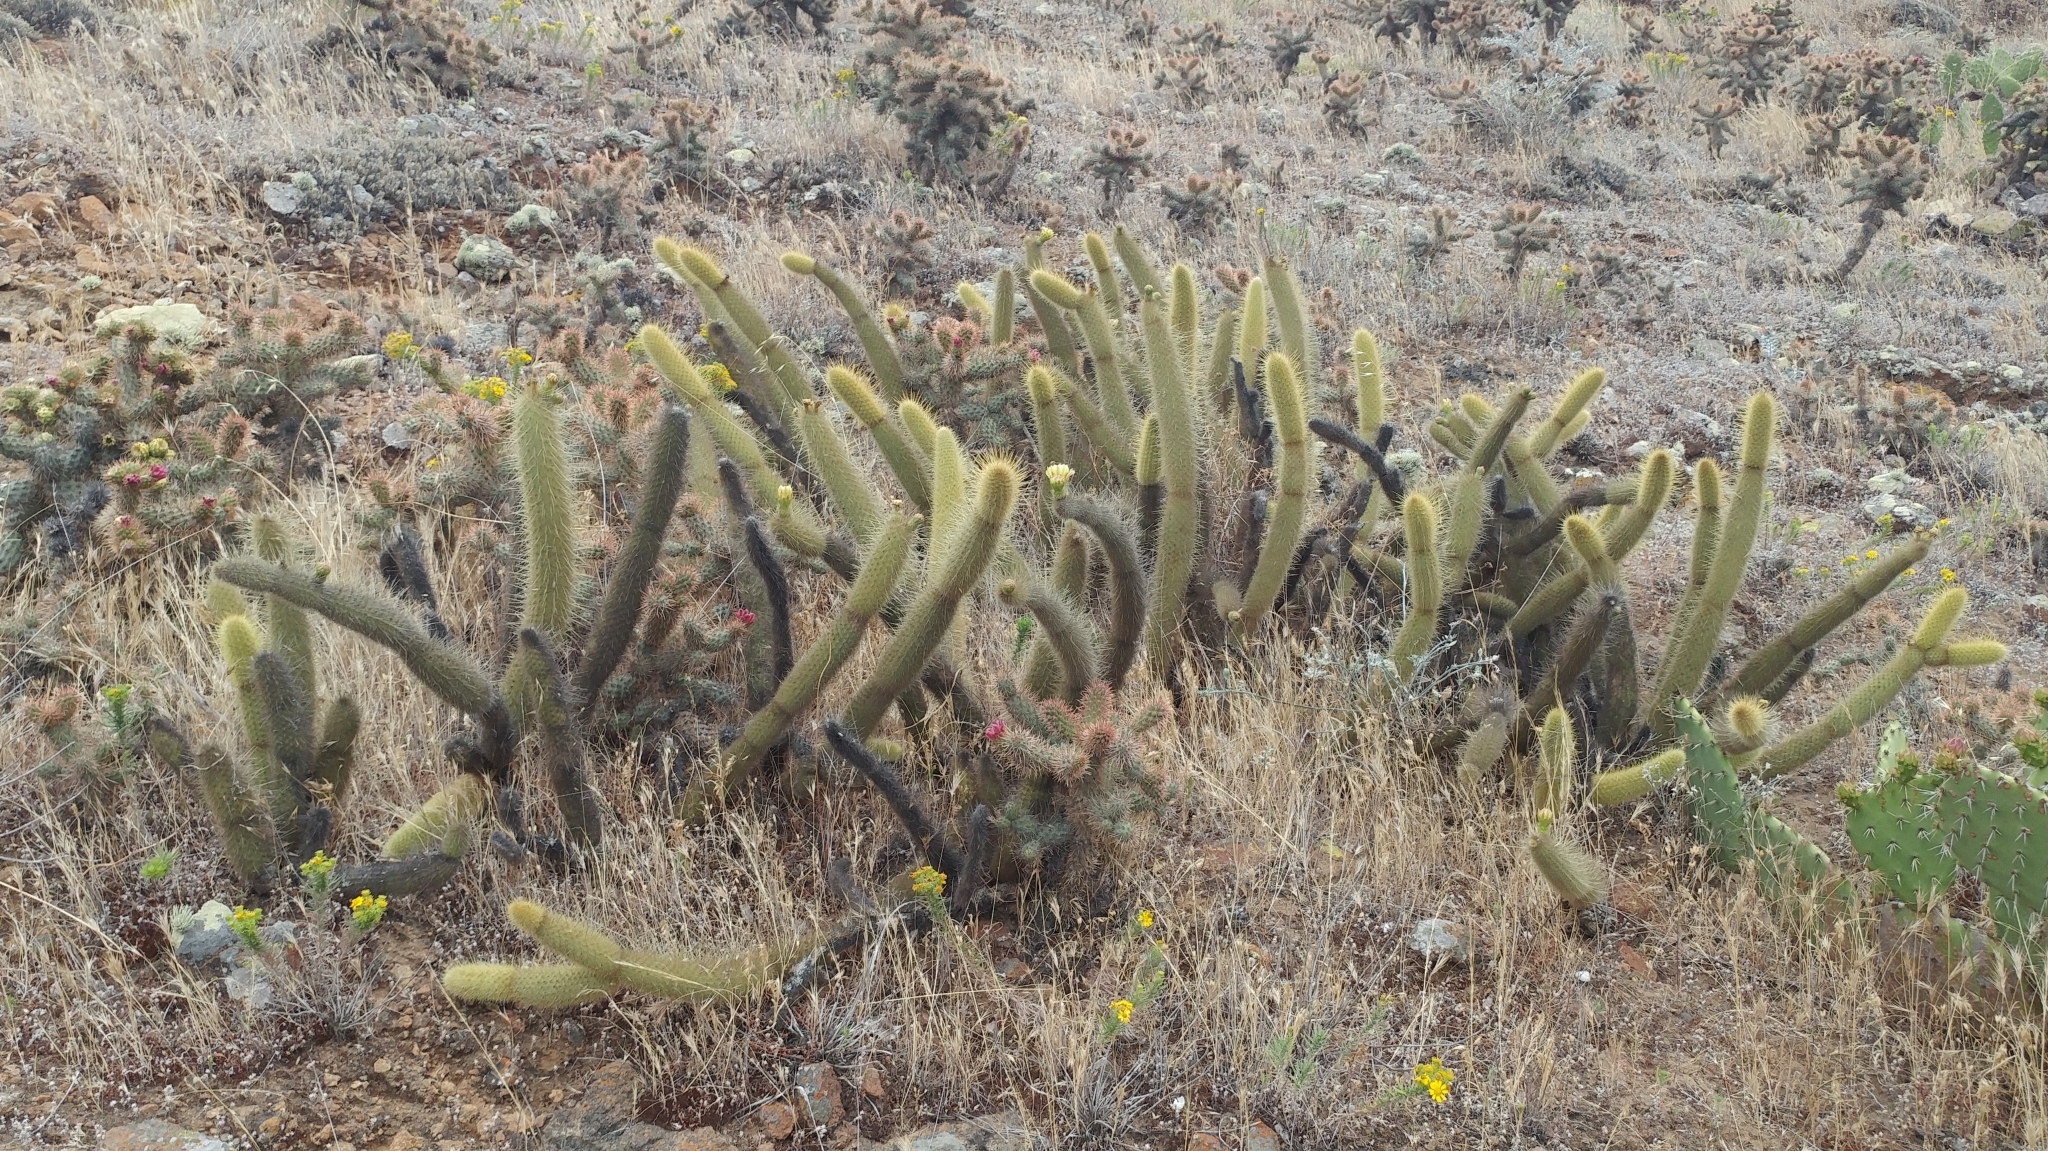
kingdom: Plantae
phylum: Tracheophyta
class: Magnoliopsida
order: Caryophyllales
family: Cactaceae
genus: Bergerocactus
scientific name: Bergerocactus emoryi
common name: Golden snakecactus
